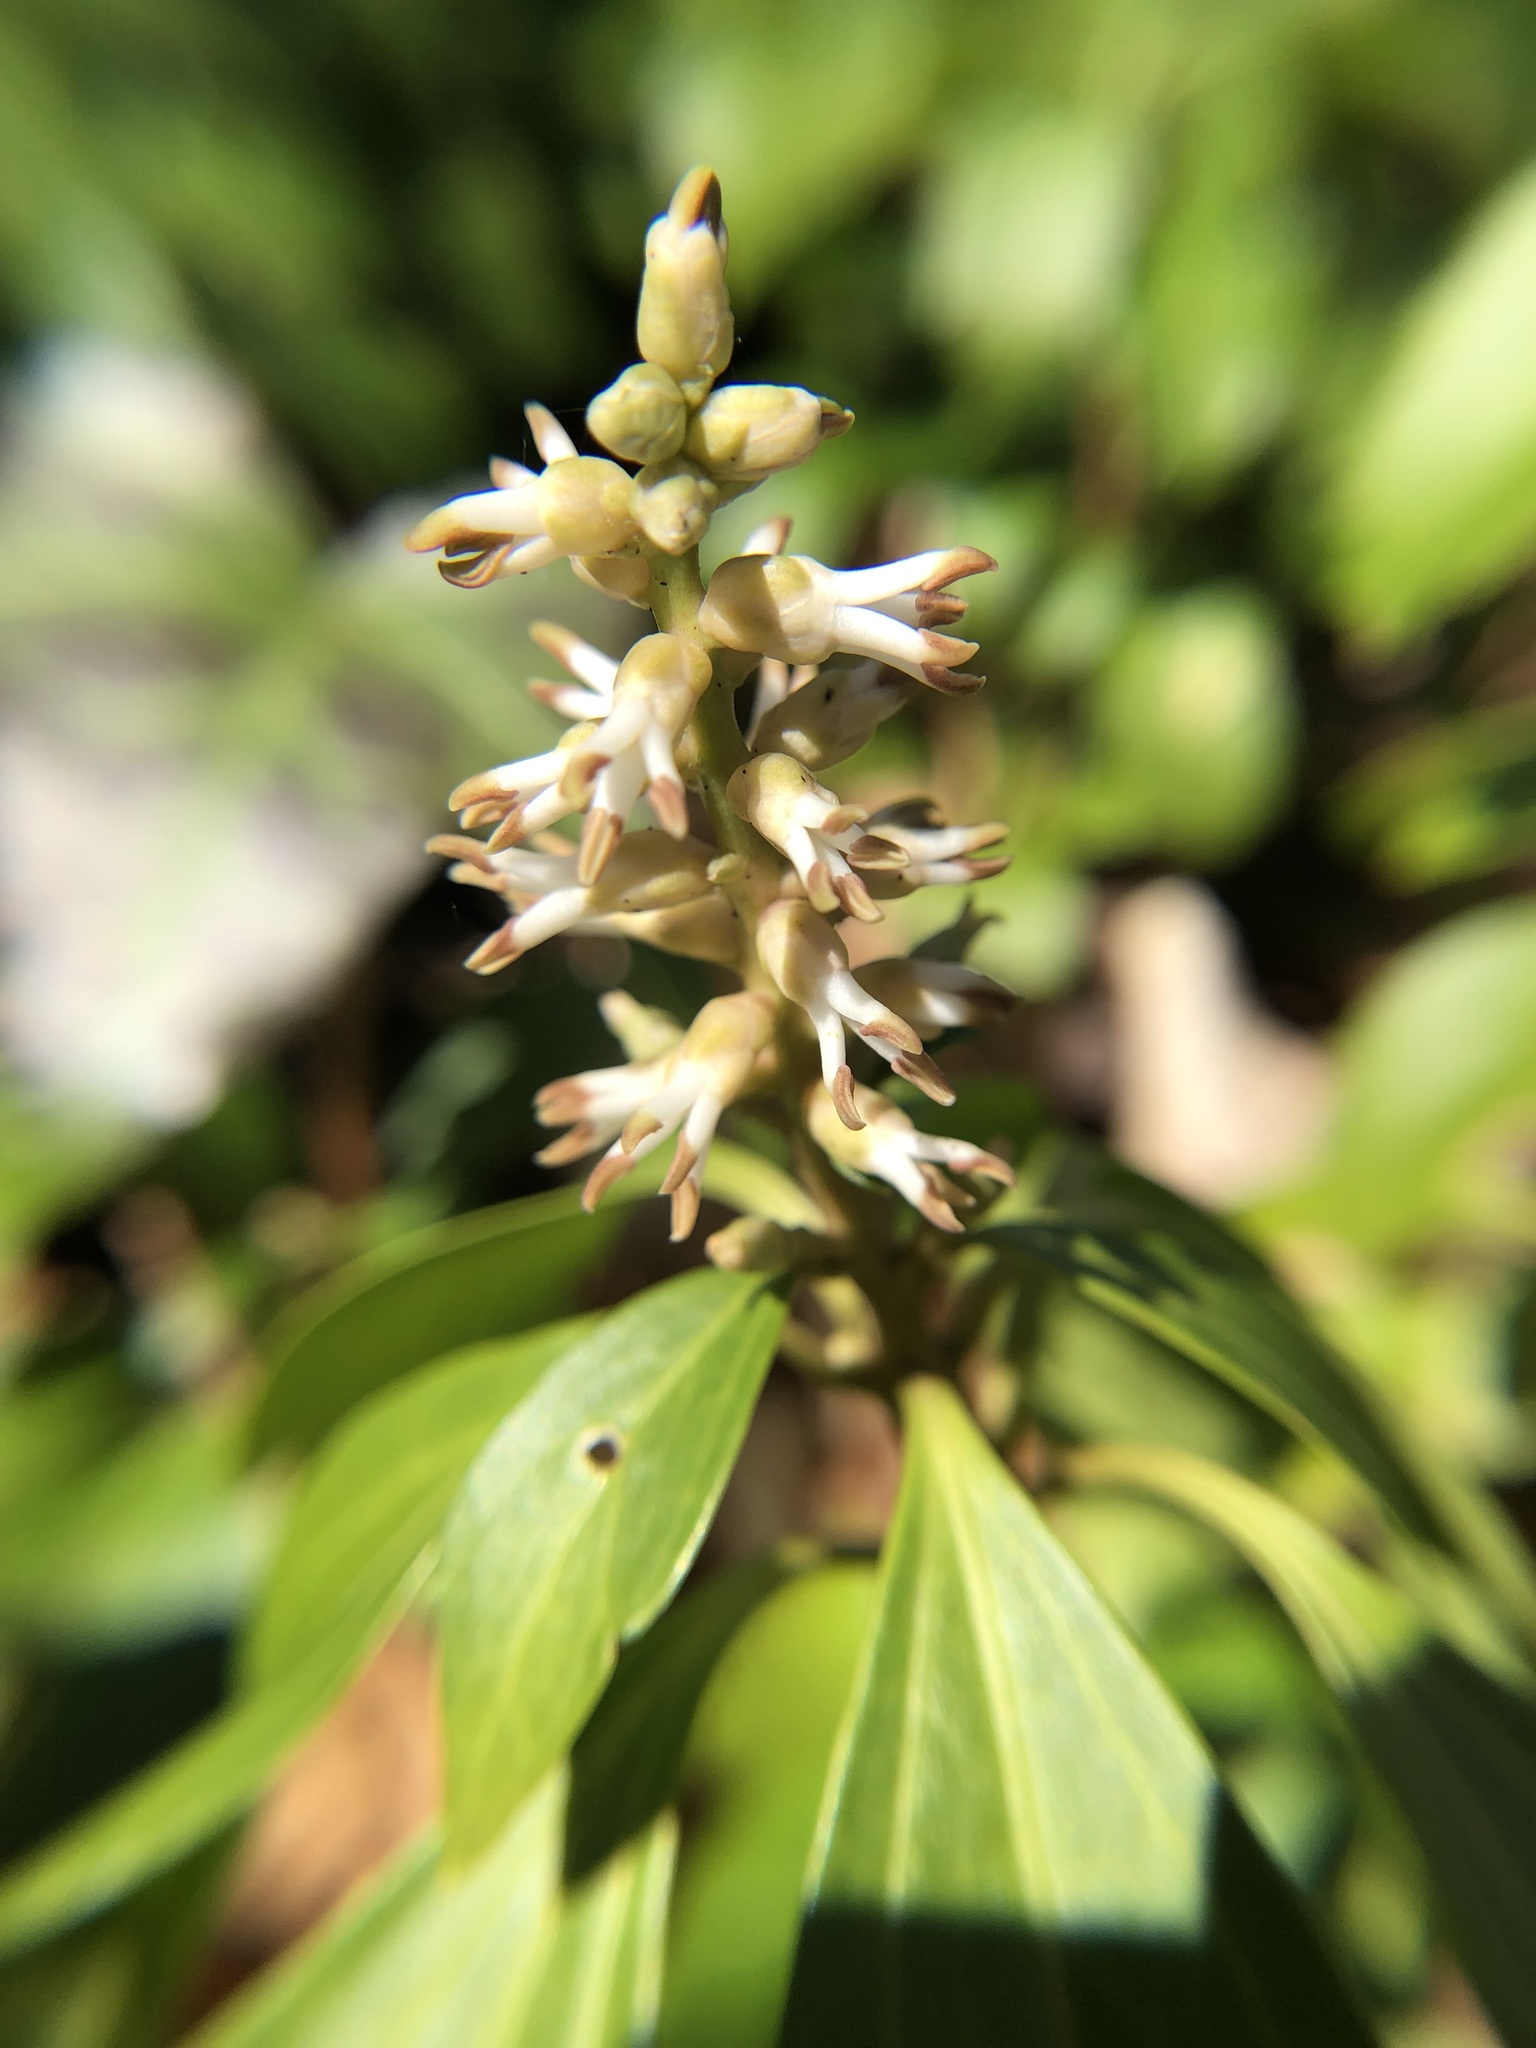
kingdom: Plantae
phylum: Tracheophyta
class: Magnoliopsida
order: Buxales
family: Buxaceae
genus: Pachysandra
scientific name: Pachysandra terminalis
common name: Japanese pachysandra
